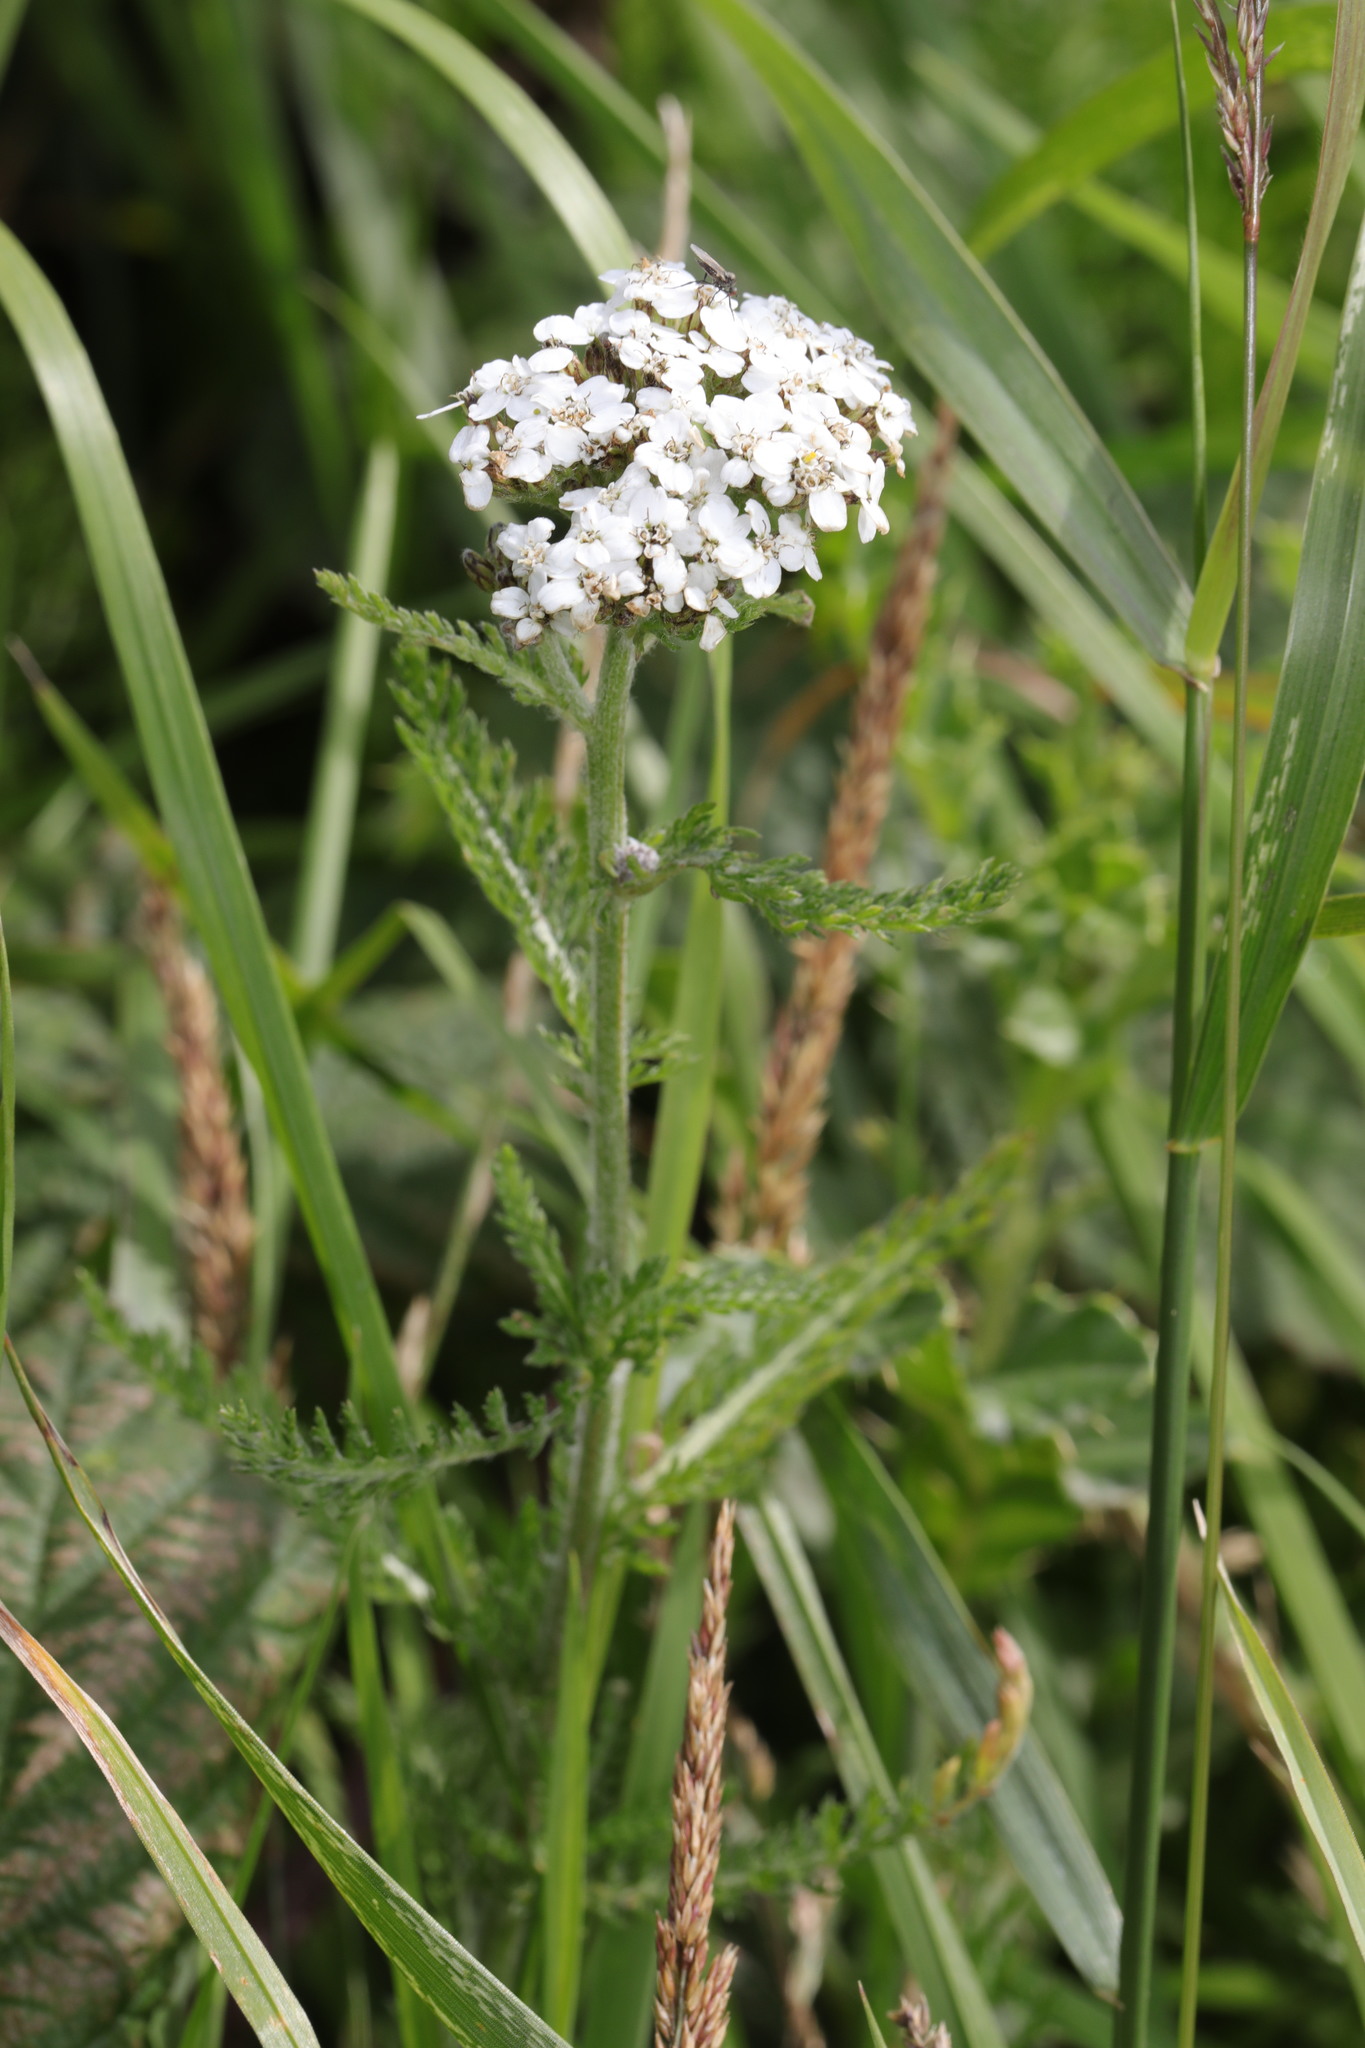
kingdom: Plantae
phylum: Tracheophyta
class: Magnoliopsida
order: Asterales
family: Asteraceae
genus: Achillea
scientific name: Achillea millefolium
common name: Yarrow
